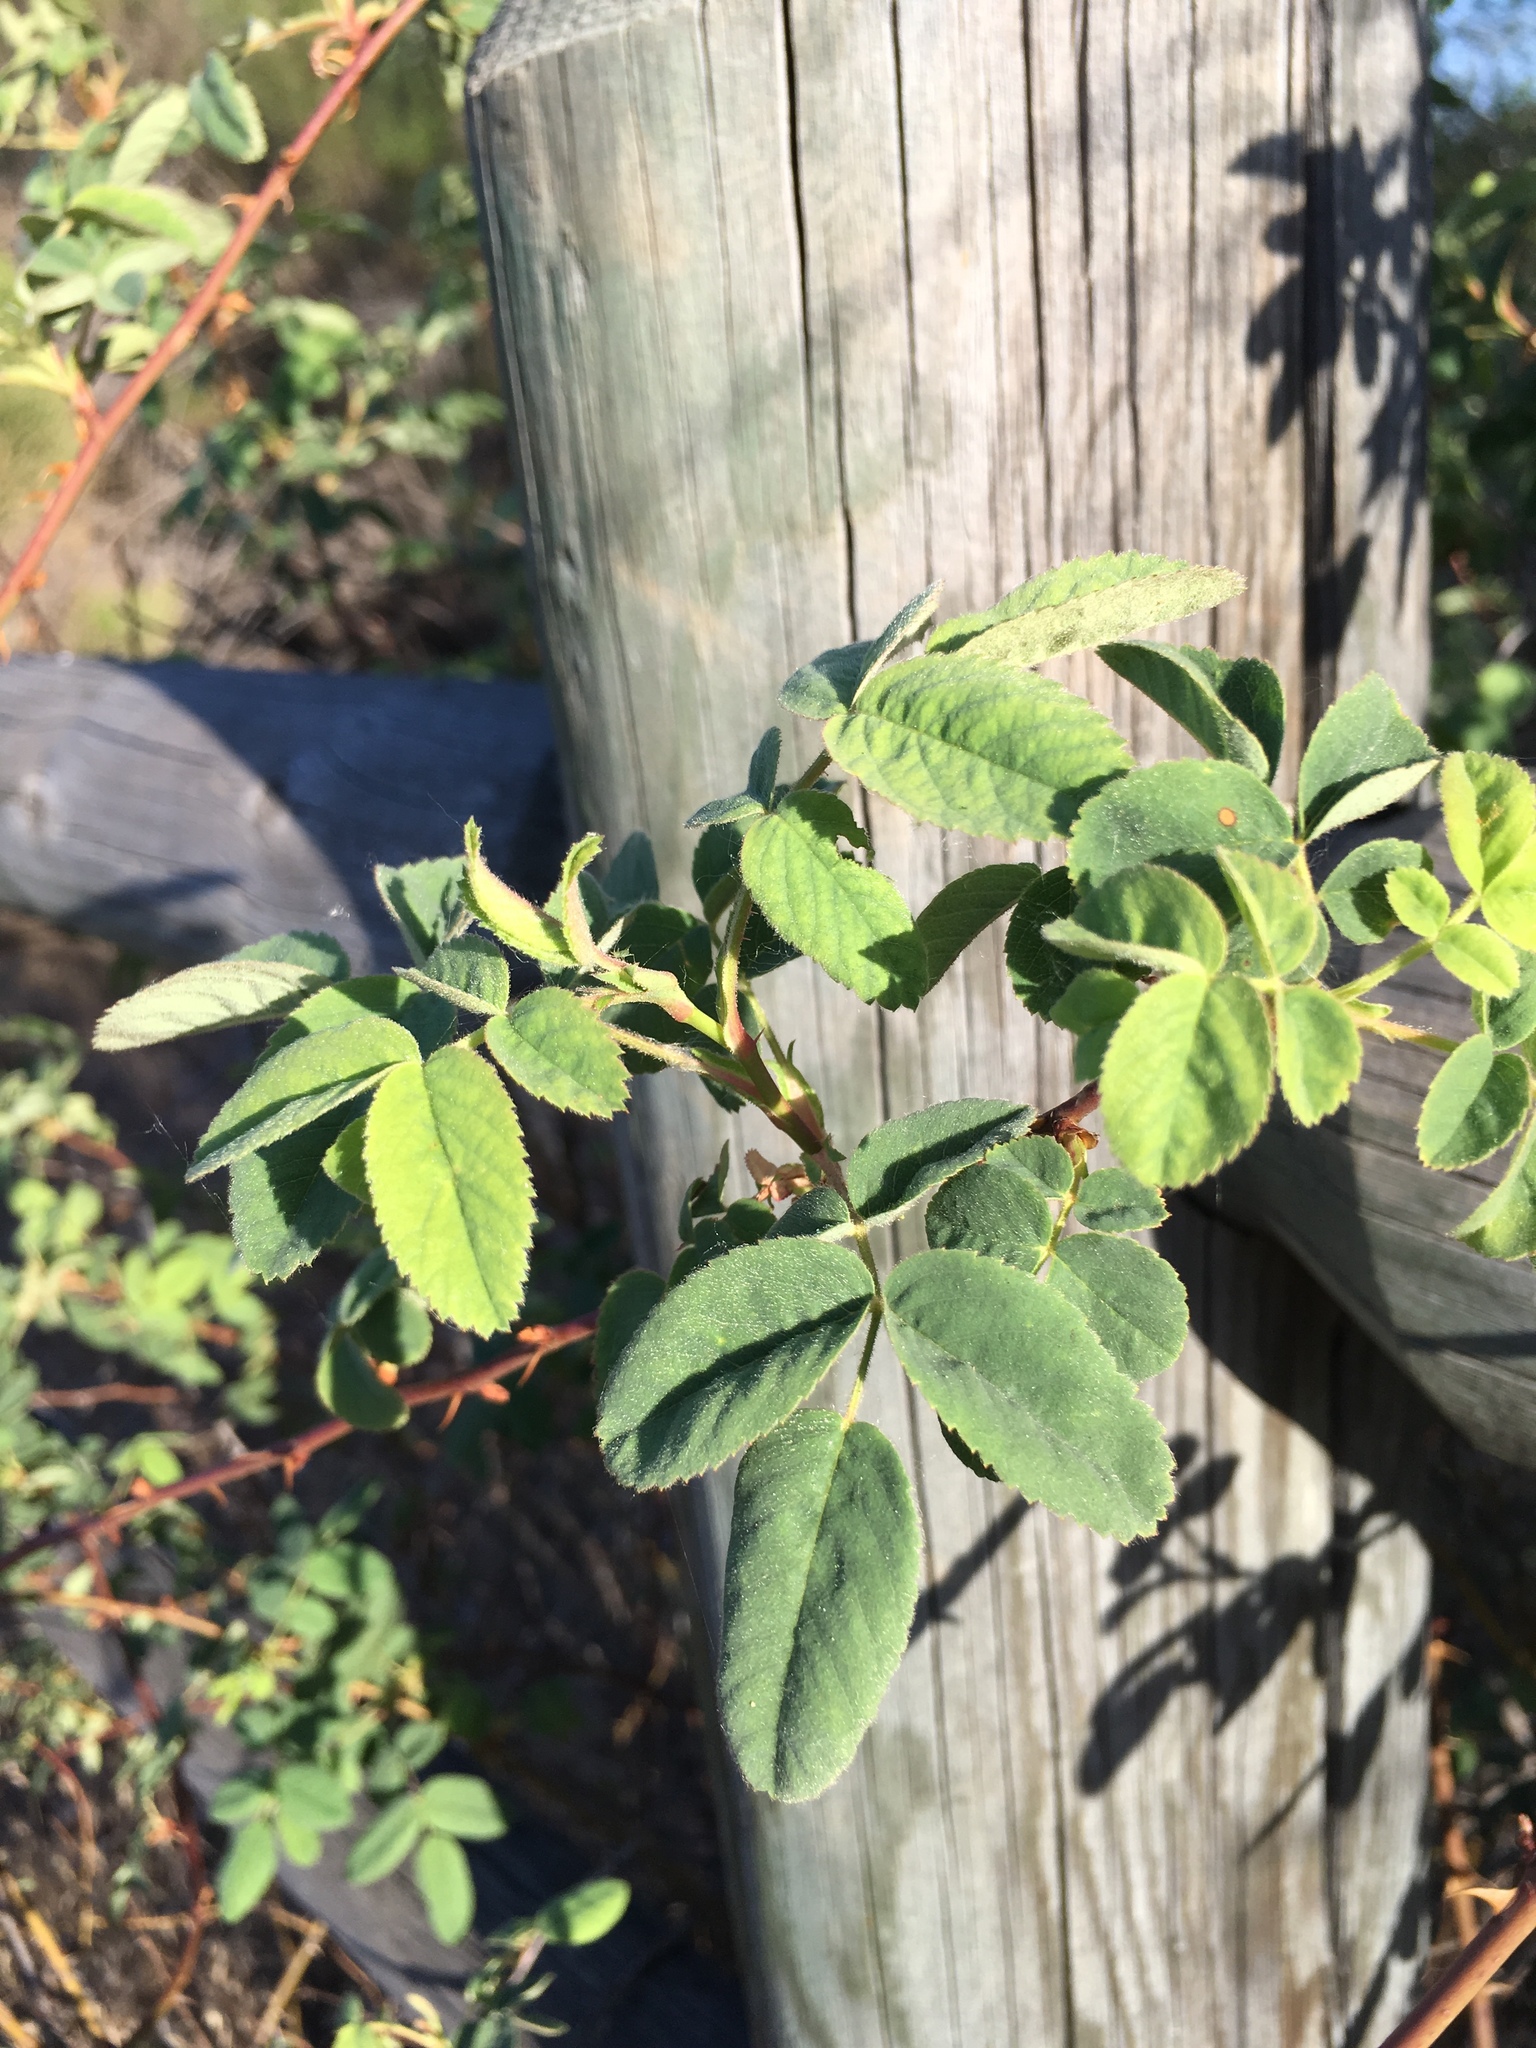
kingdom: Plantae
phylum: Tracheophyta
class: Magnoliopsida
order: Rosales
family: Rosaceae
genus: Rosa
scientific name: Rosa californica
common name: California rose
